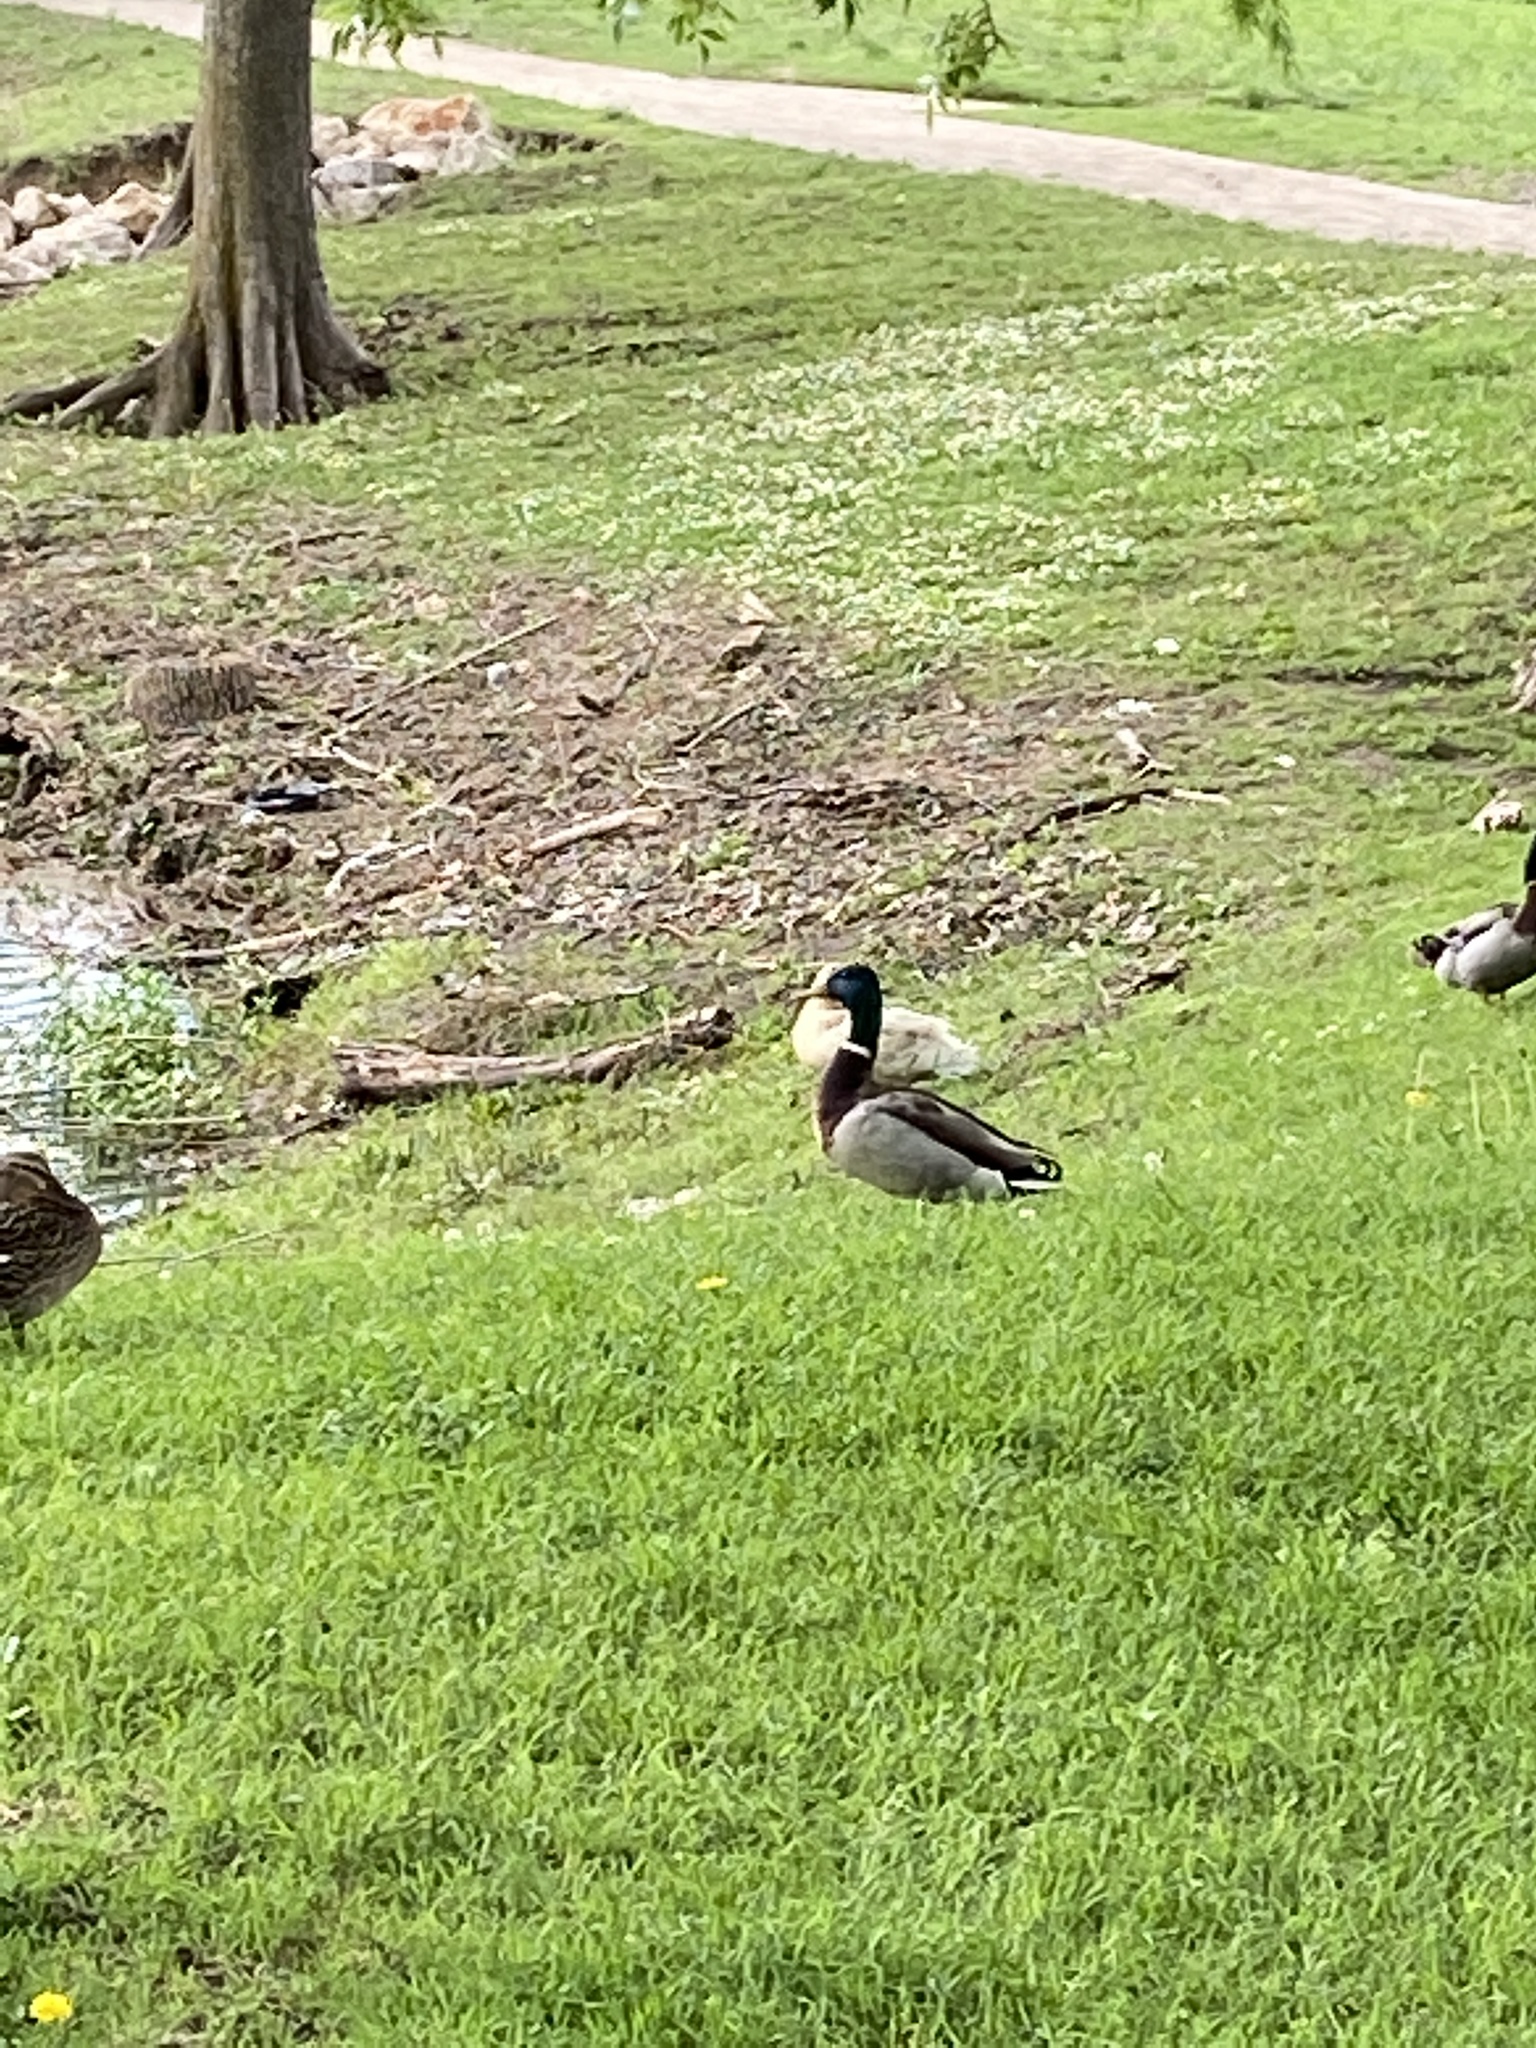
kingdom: Animalia
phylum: Chordata
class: Aves
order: Anseriformes
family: Anatidae
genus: Anas
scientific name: Anas platyrhynchos
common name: Mallard
